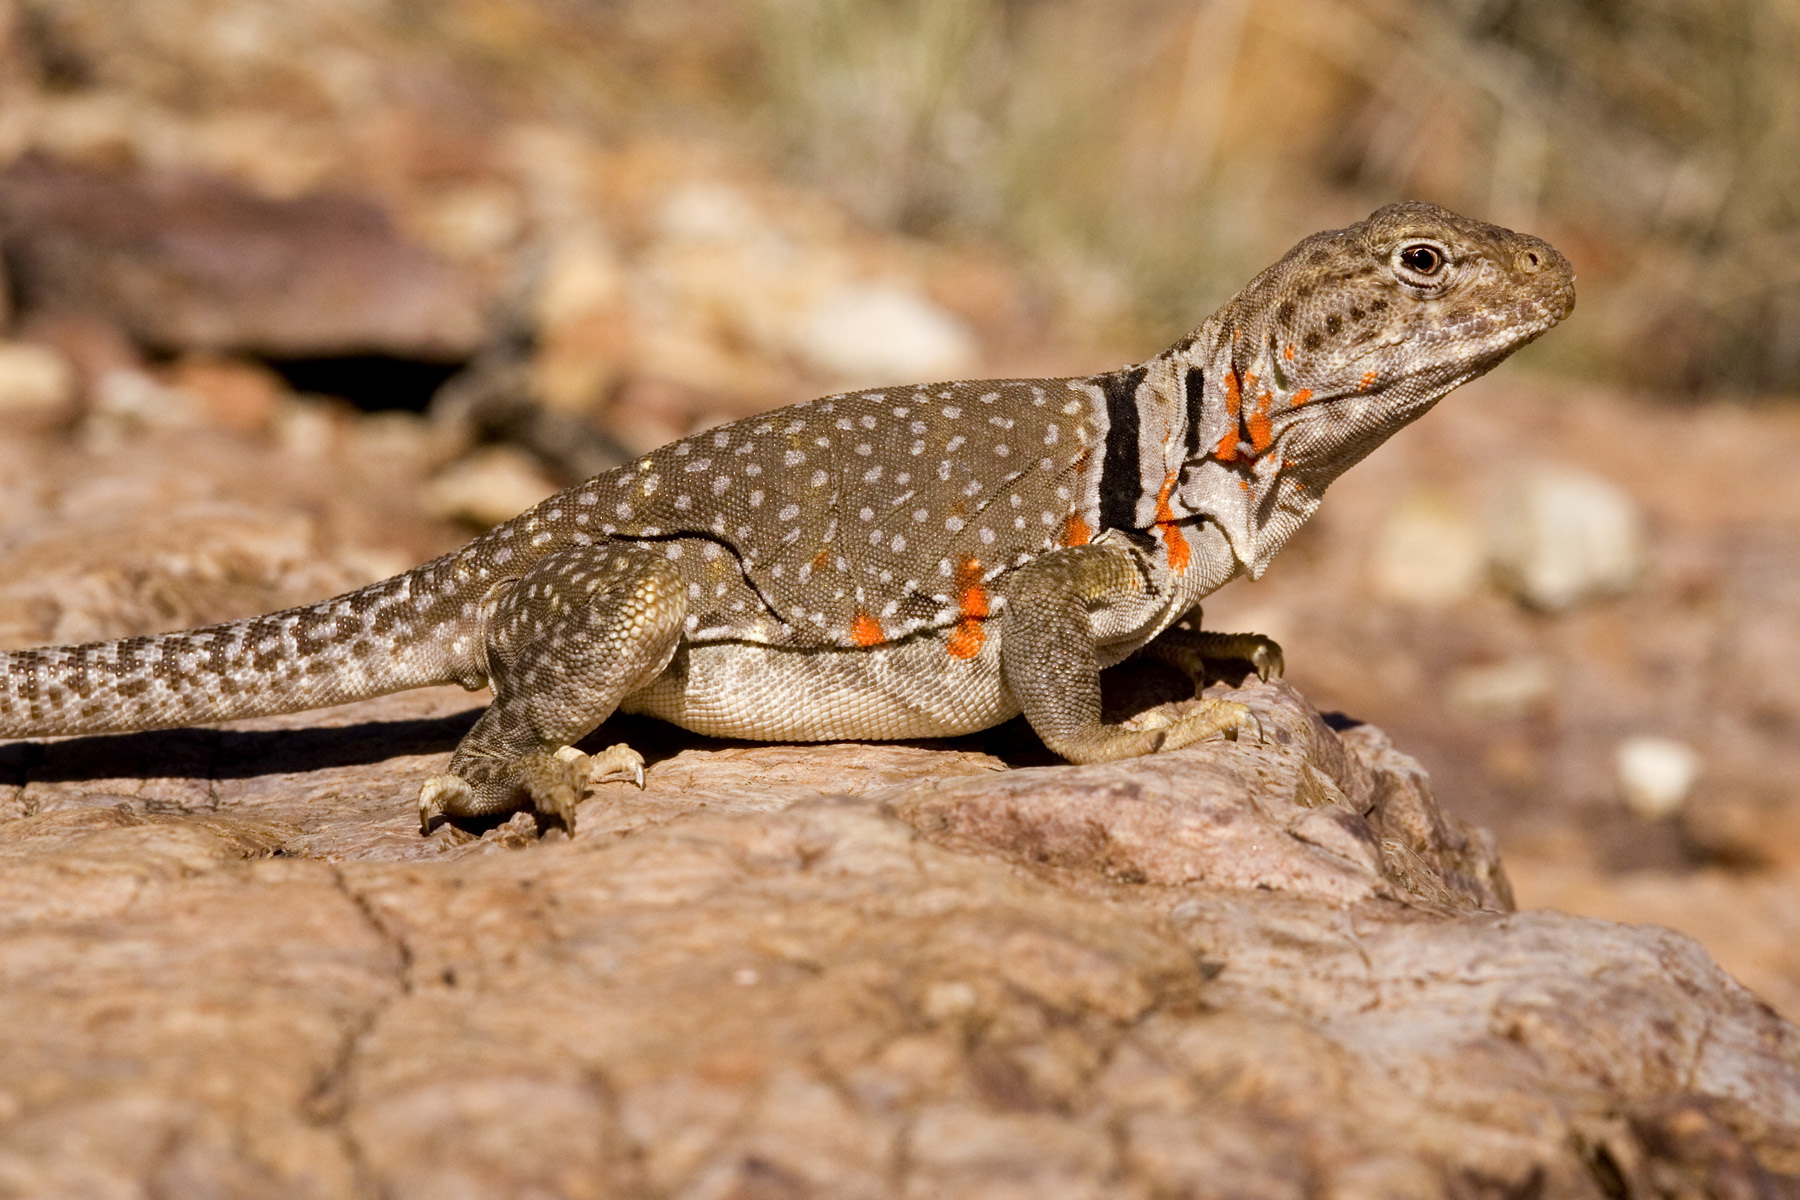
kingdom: Animalia
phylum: Chordata
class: Squamata
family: Crotaphytidae
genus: Crotaphytus
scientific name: Crotaphytus collaris
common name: Collared lizard
